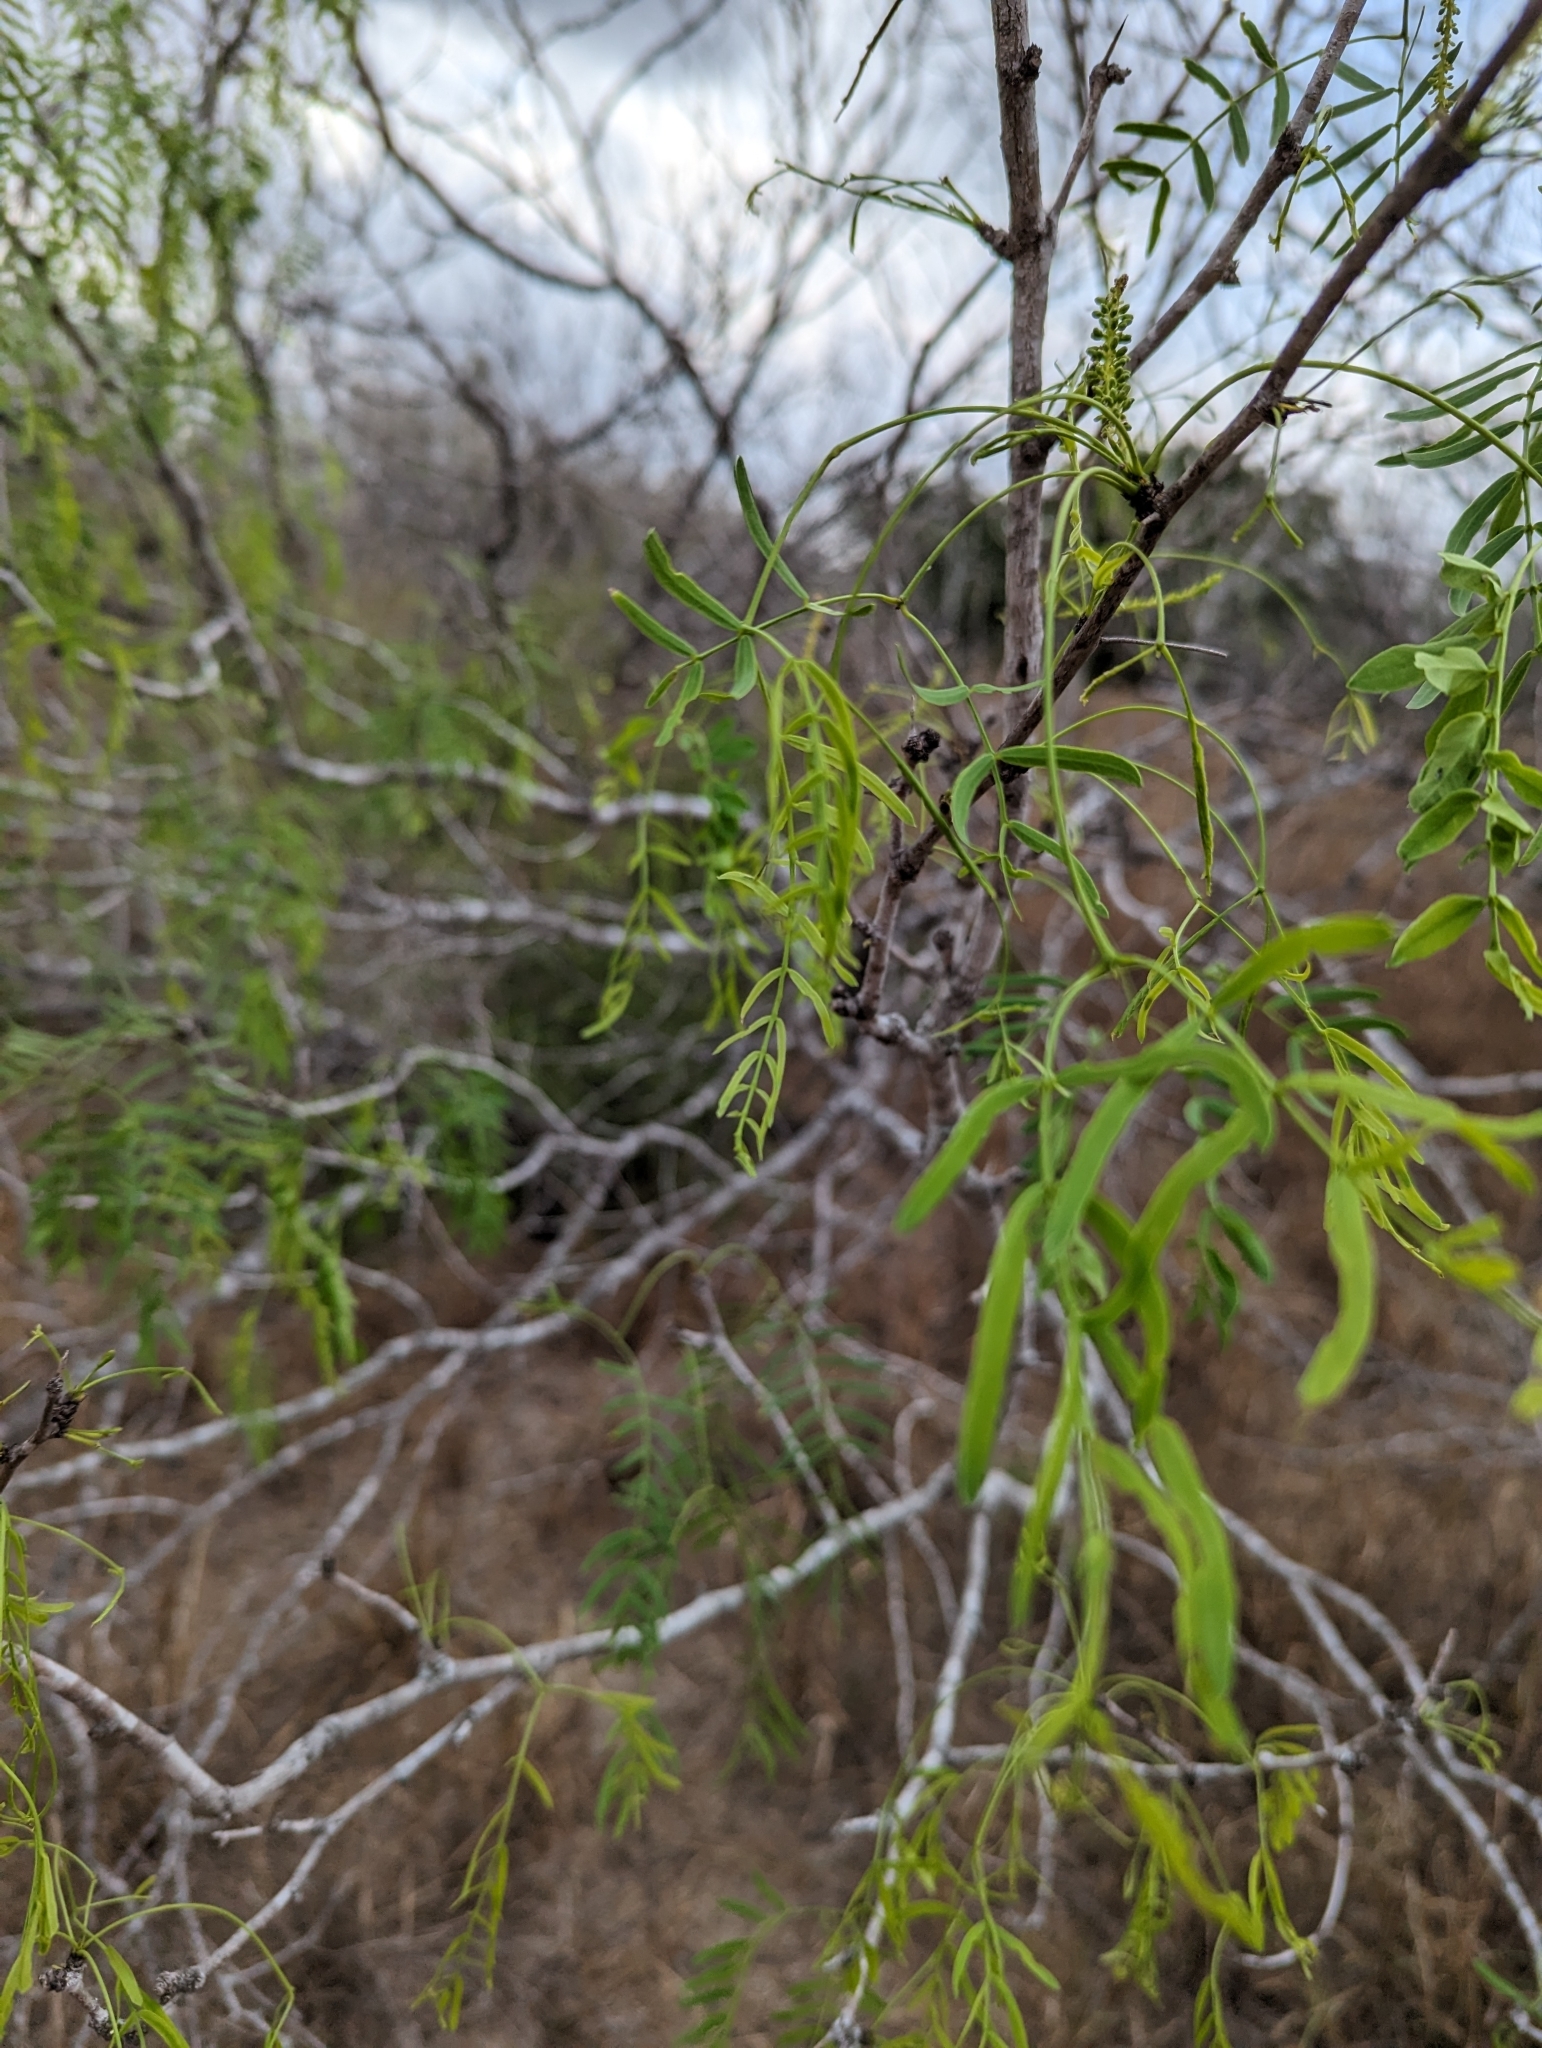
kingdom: Plantae
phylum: Tracheophyta
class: Magnoliopsida
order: Fabales
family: Fabaceae
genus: Prosopis
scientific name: Prosopis glandulosa
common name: Honey mesquite
